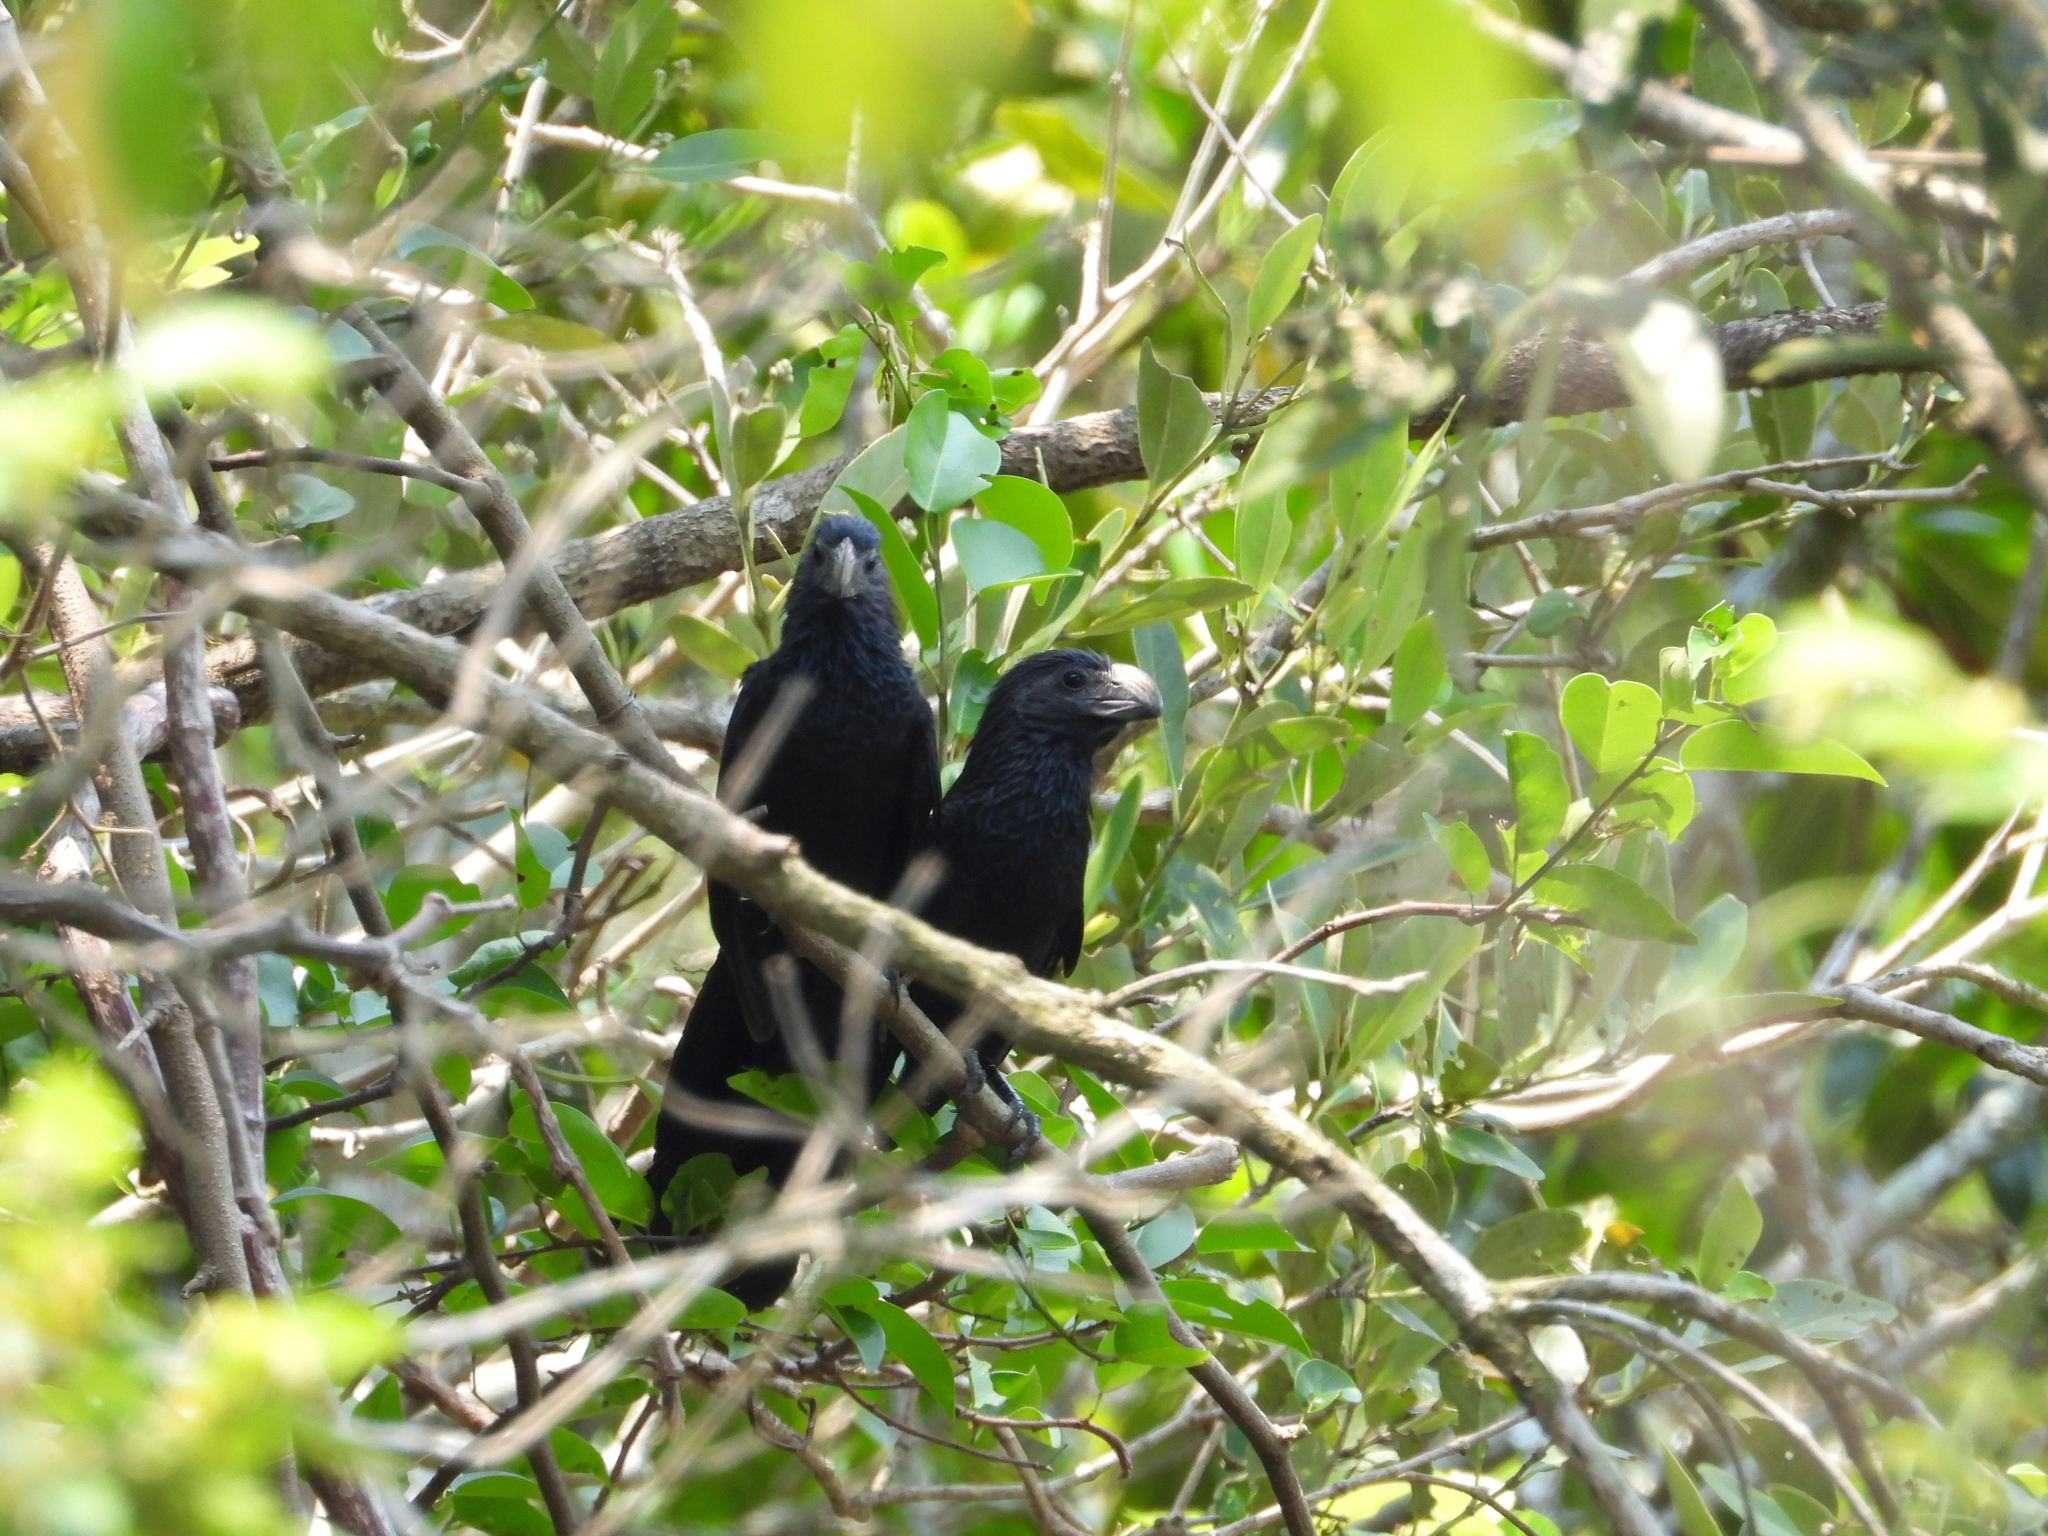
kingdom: Animalia
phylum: Chordata
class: Aves
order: Cuculiformes
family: Cuculidae
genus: Crotophaga
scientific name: Crotophaga sulcirostris
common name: Groove-billed ani
